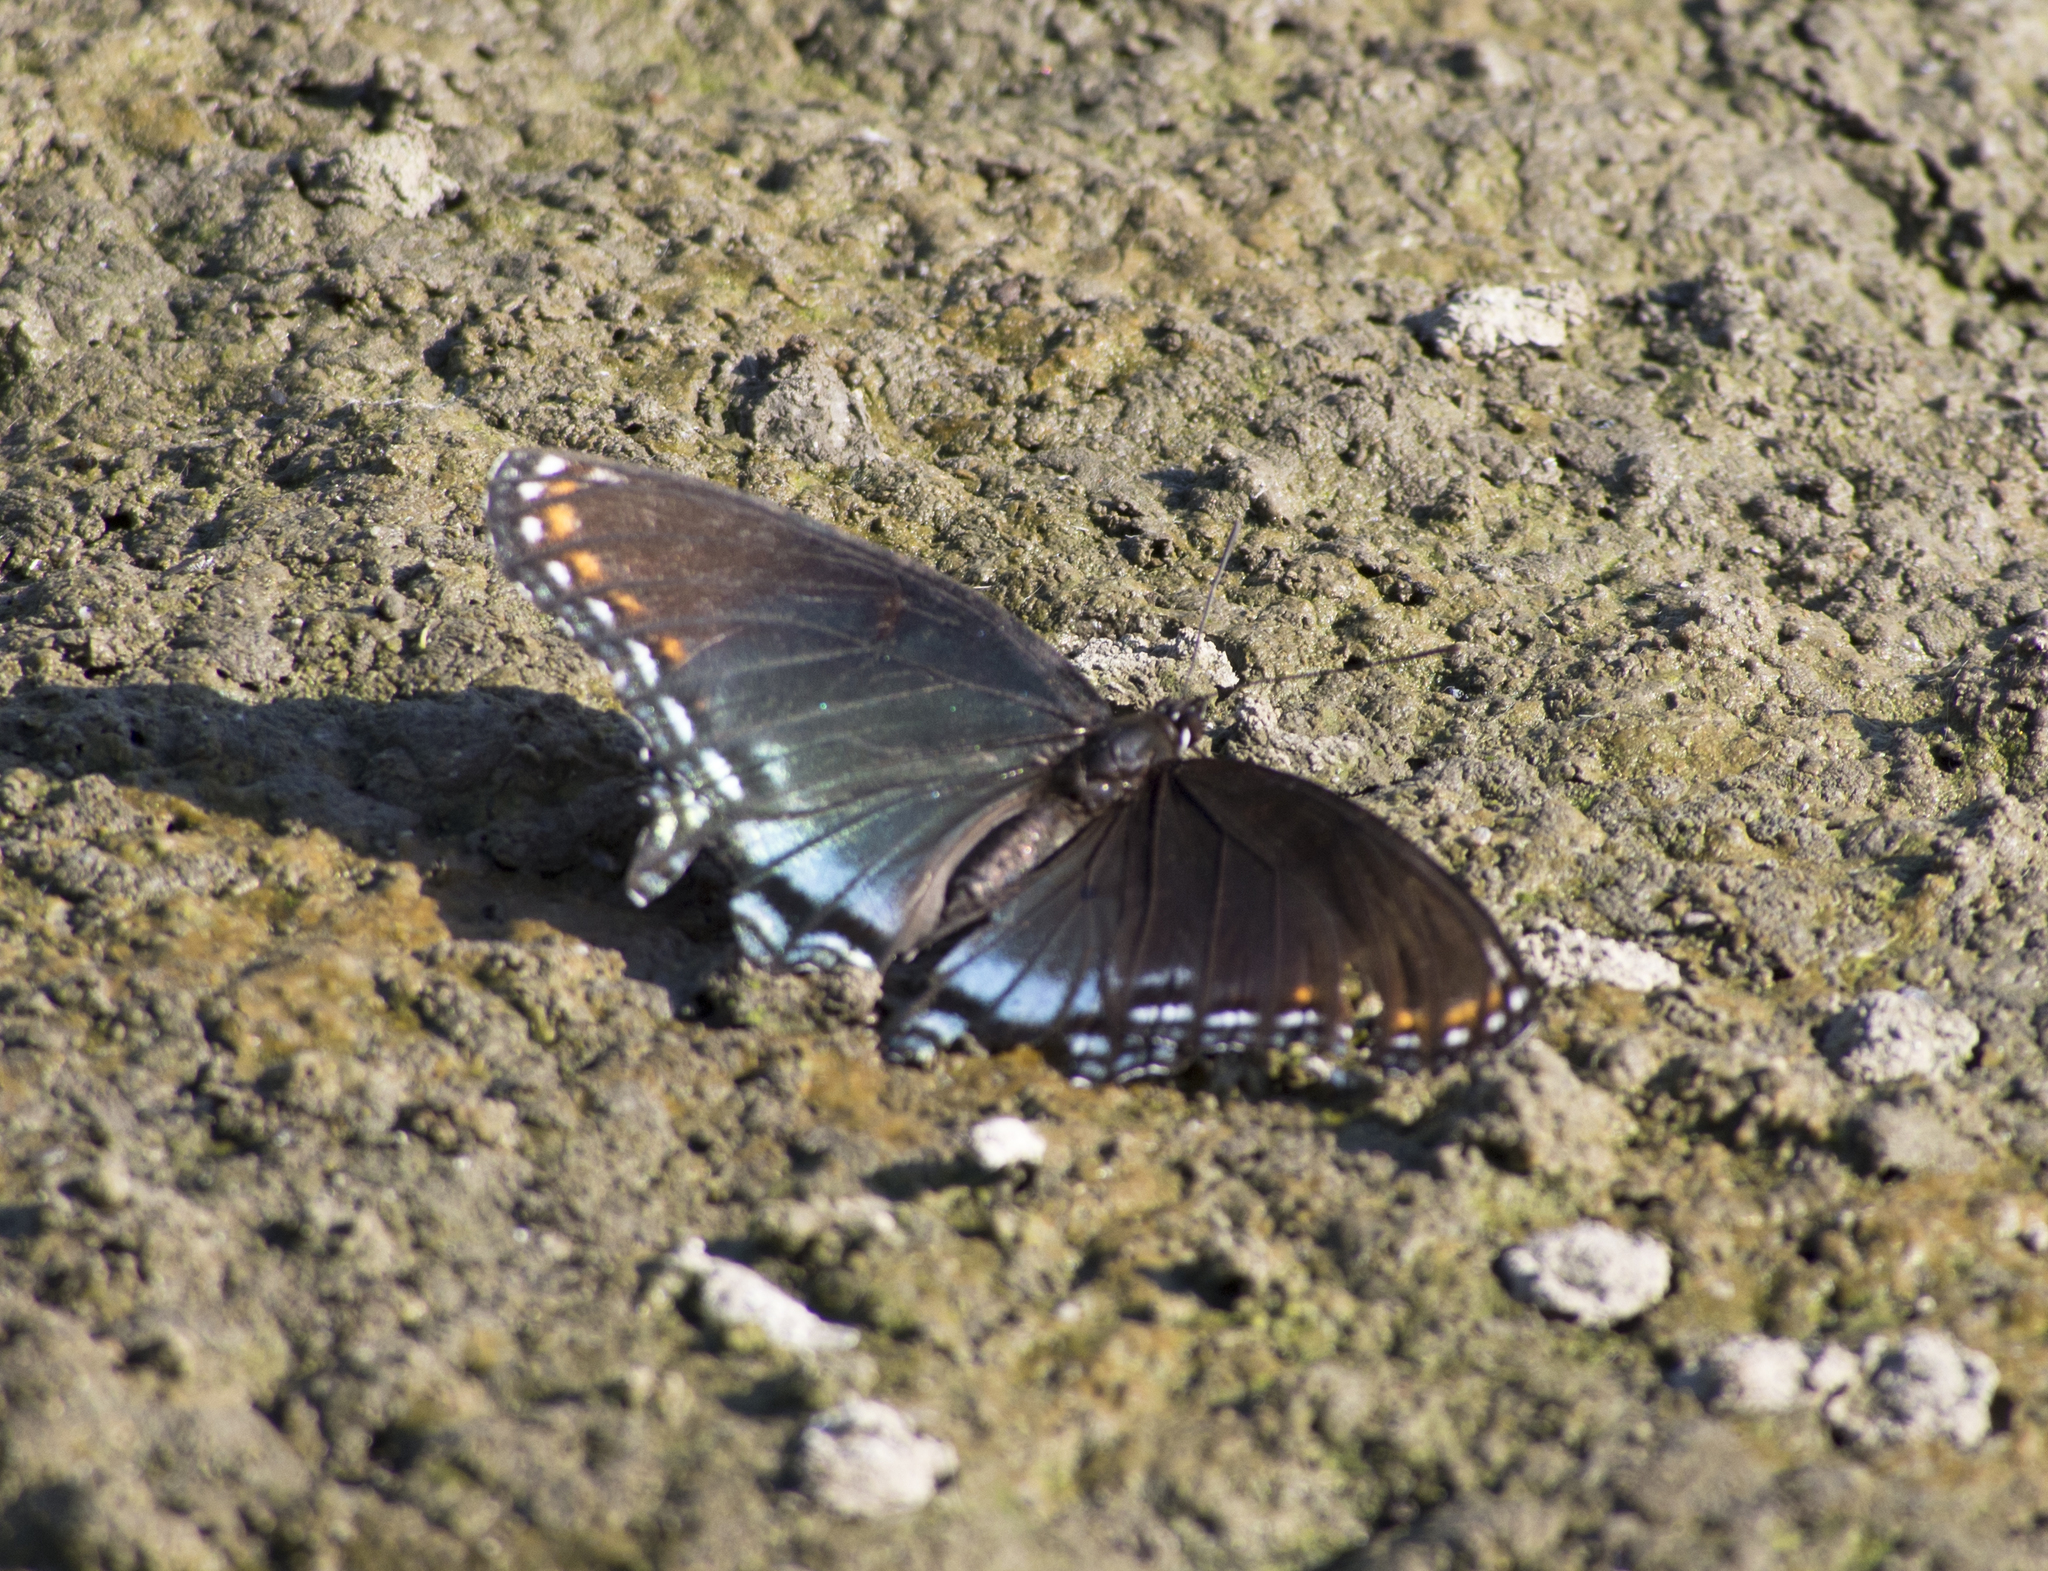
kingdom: Animalia
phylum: Arthropoda
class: Insecta
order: Lepidoptera
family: Nymphalidae
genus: Limenitis
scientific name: Limenitis astyanax
